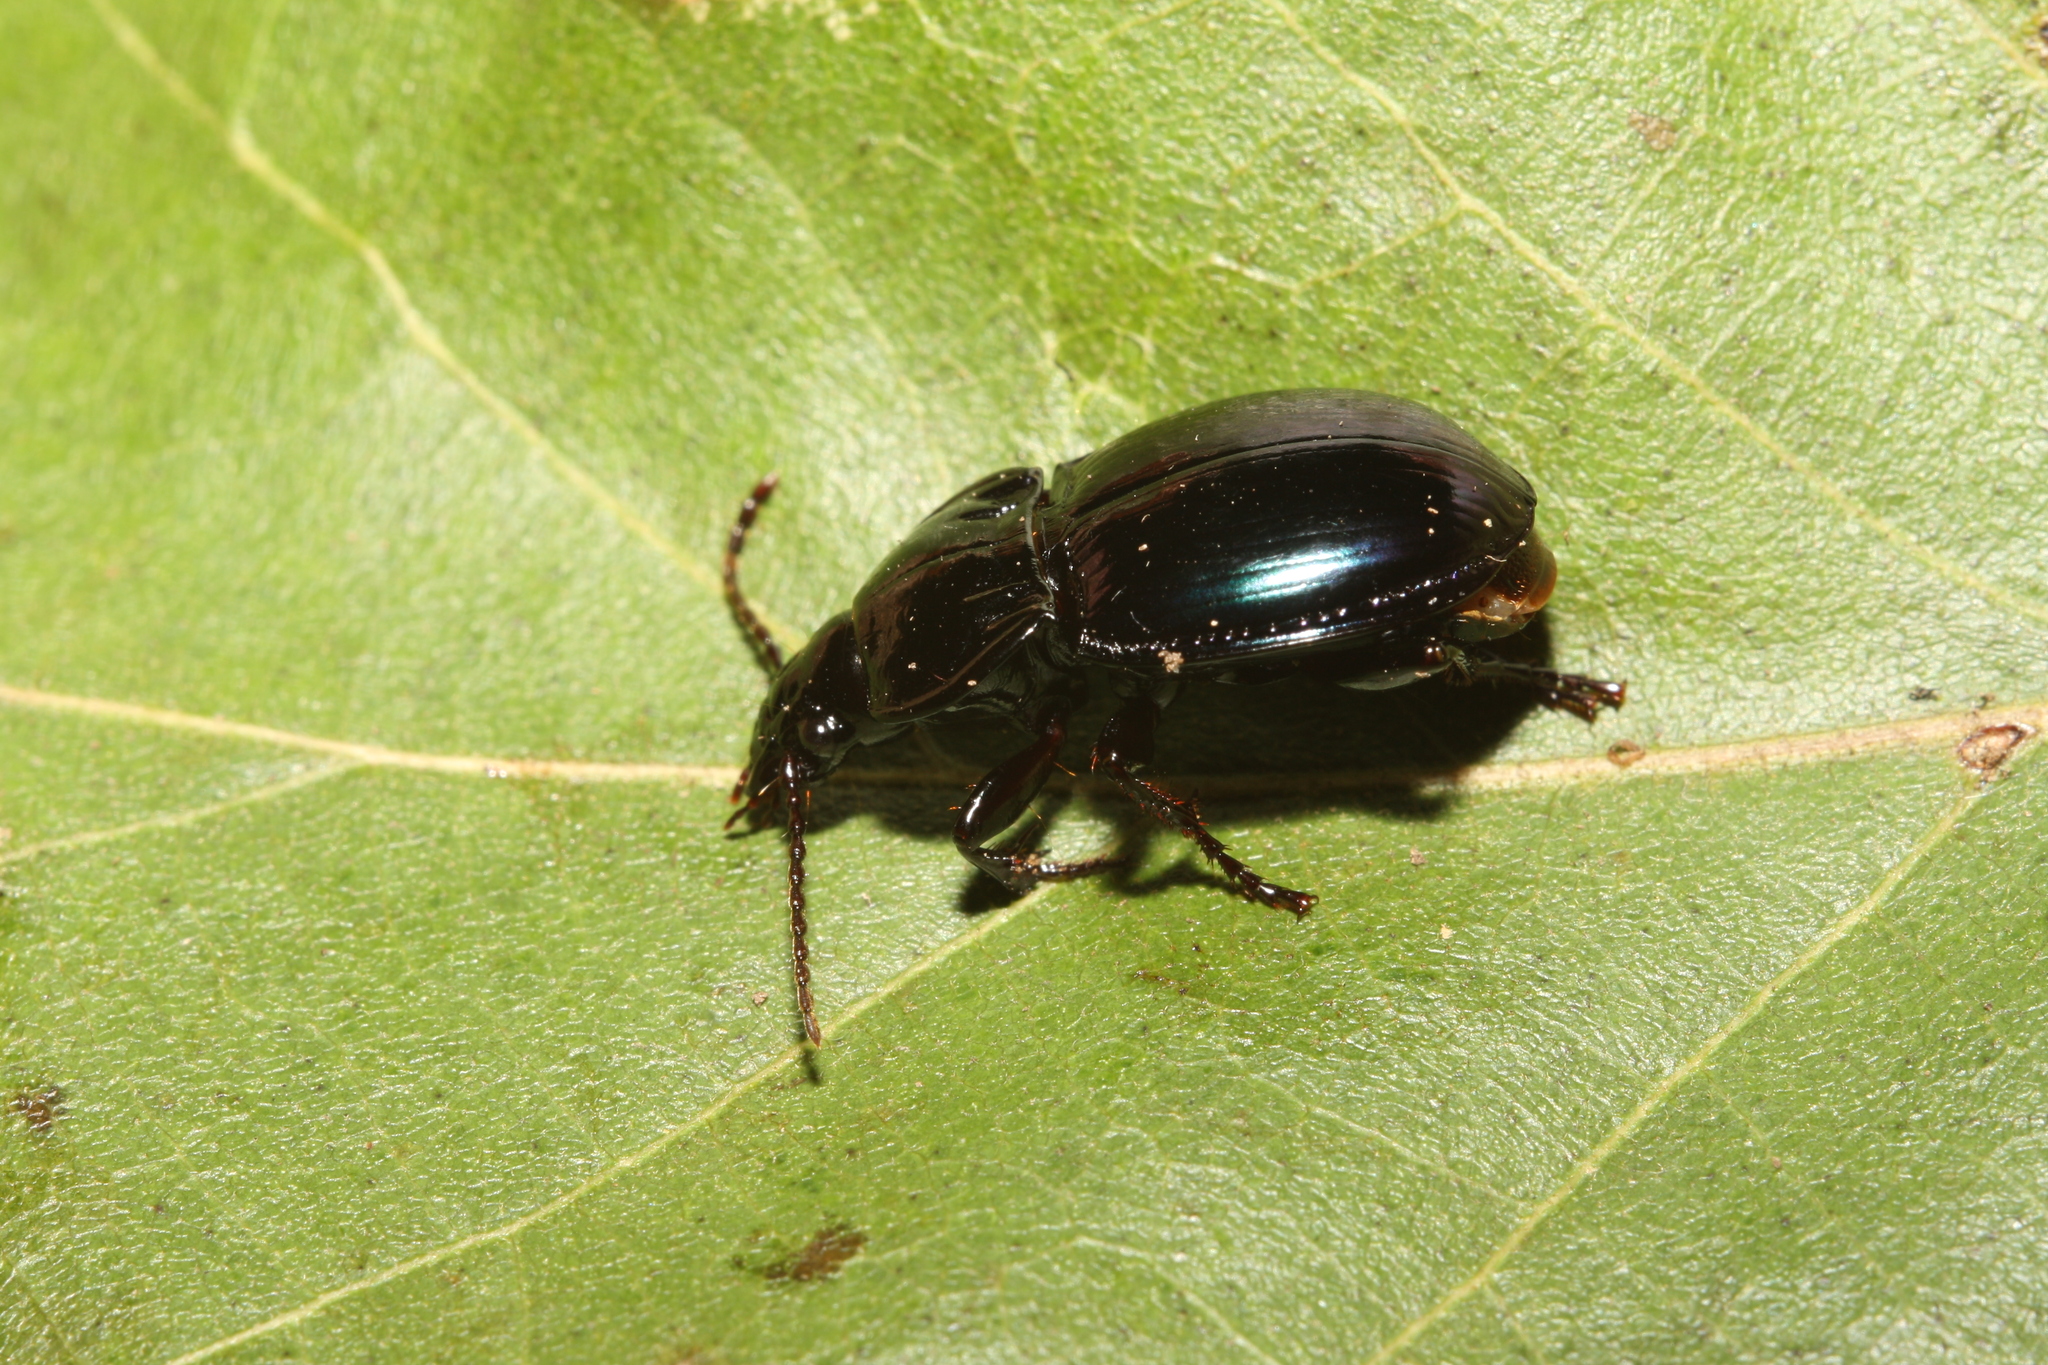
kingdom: Animalia
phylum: Arthropoda
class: Insecta
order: Coleoptera
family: Carabidae
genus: Myas
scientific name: Myas chalybaeus
